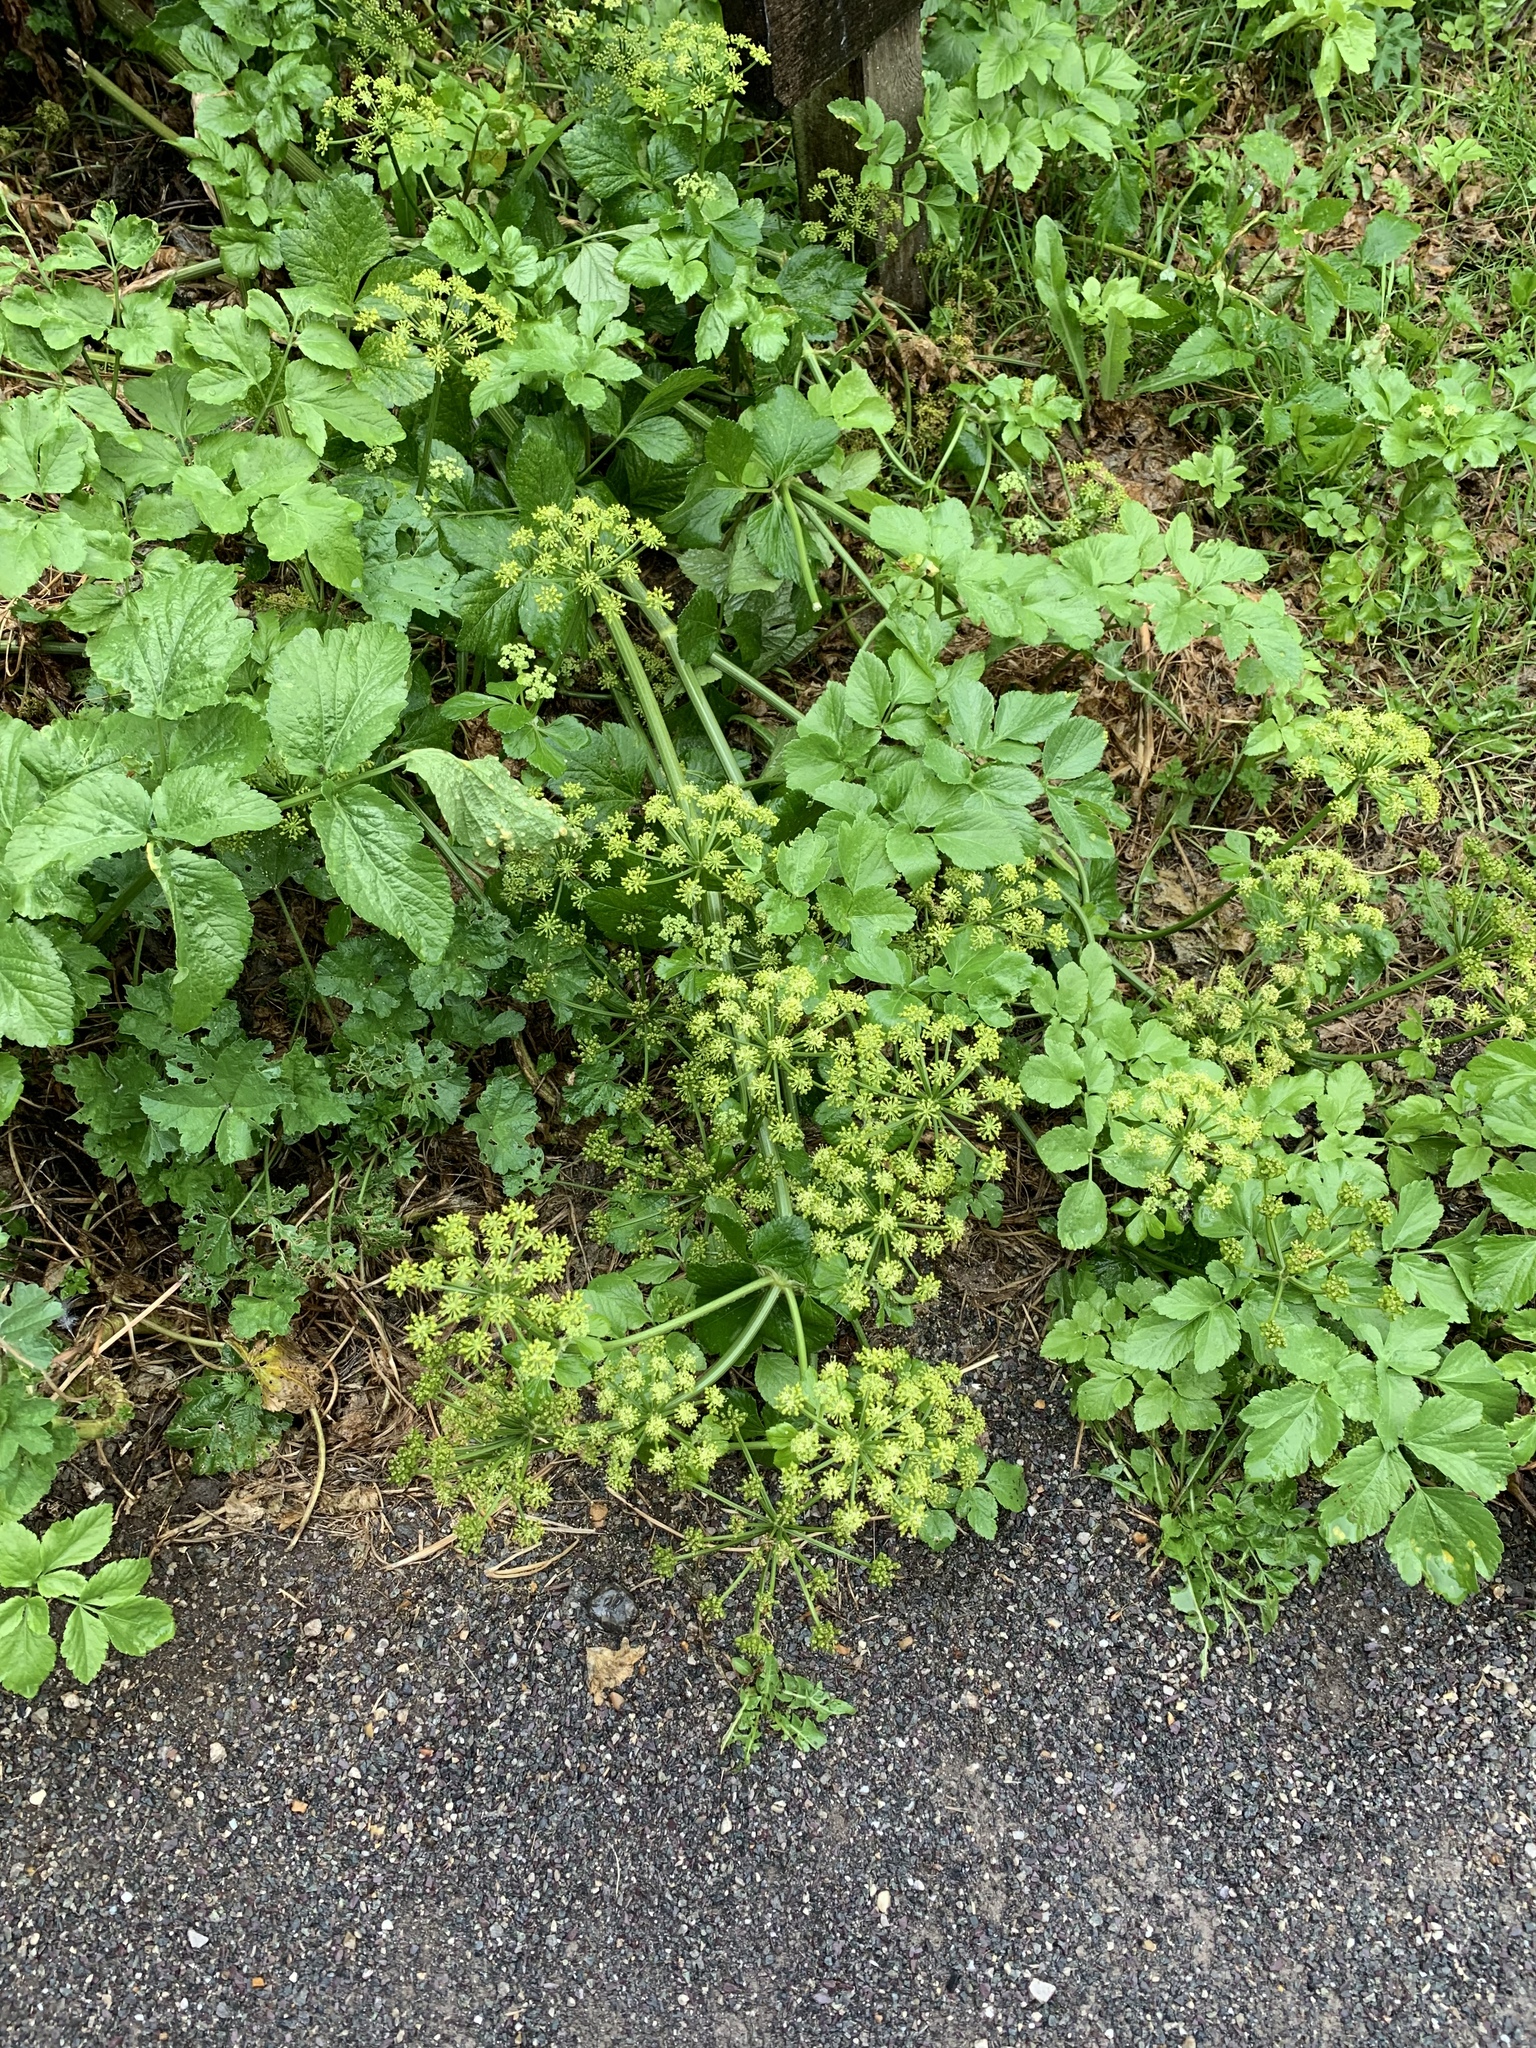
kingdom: Plantae
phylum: Tracheophyta
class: Magnoliopsida
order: Apiales
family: Apiaceae
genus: Smyrnium
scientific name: Smyrnium olusatrum
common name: Alexanders
